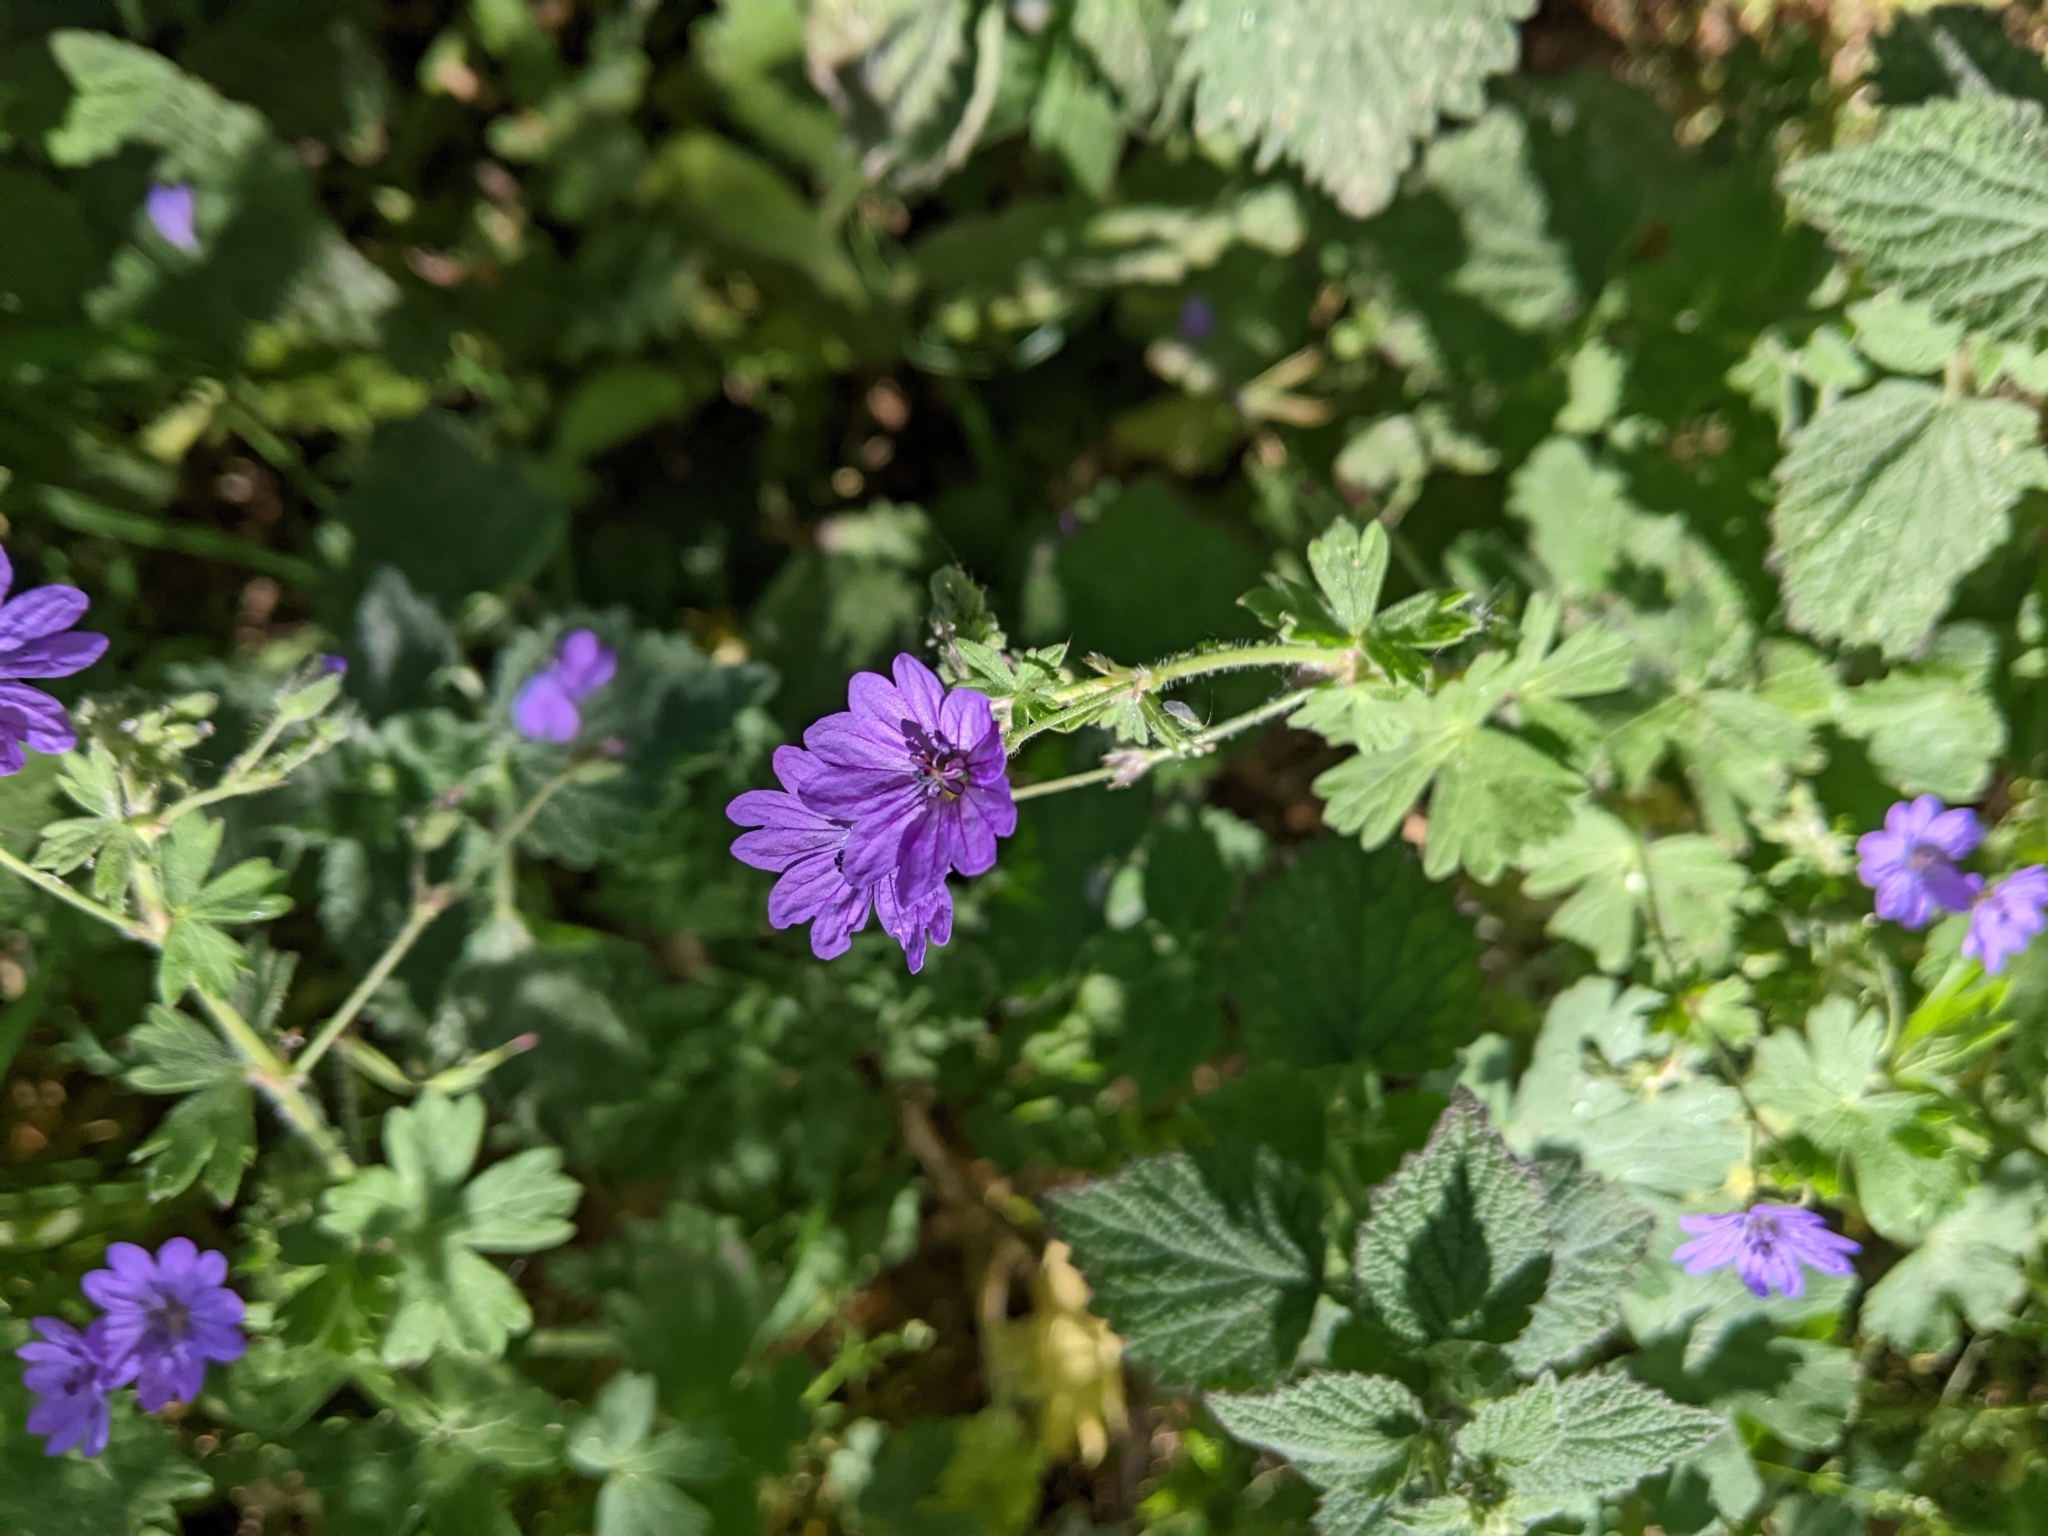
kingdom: Plantae
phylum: Tracheophyta
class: Magnoliopsida
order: Geraniales
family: Geraniaceae
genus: Geranium
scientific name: Geranium pyrenaicum
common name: Hedgerow crane's-bill
